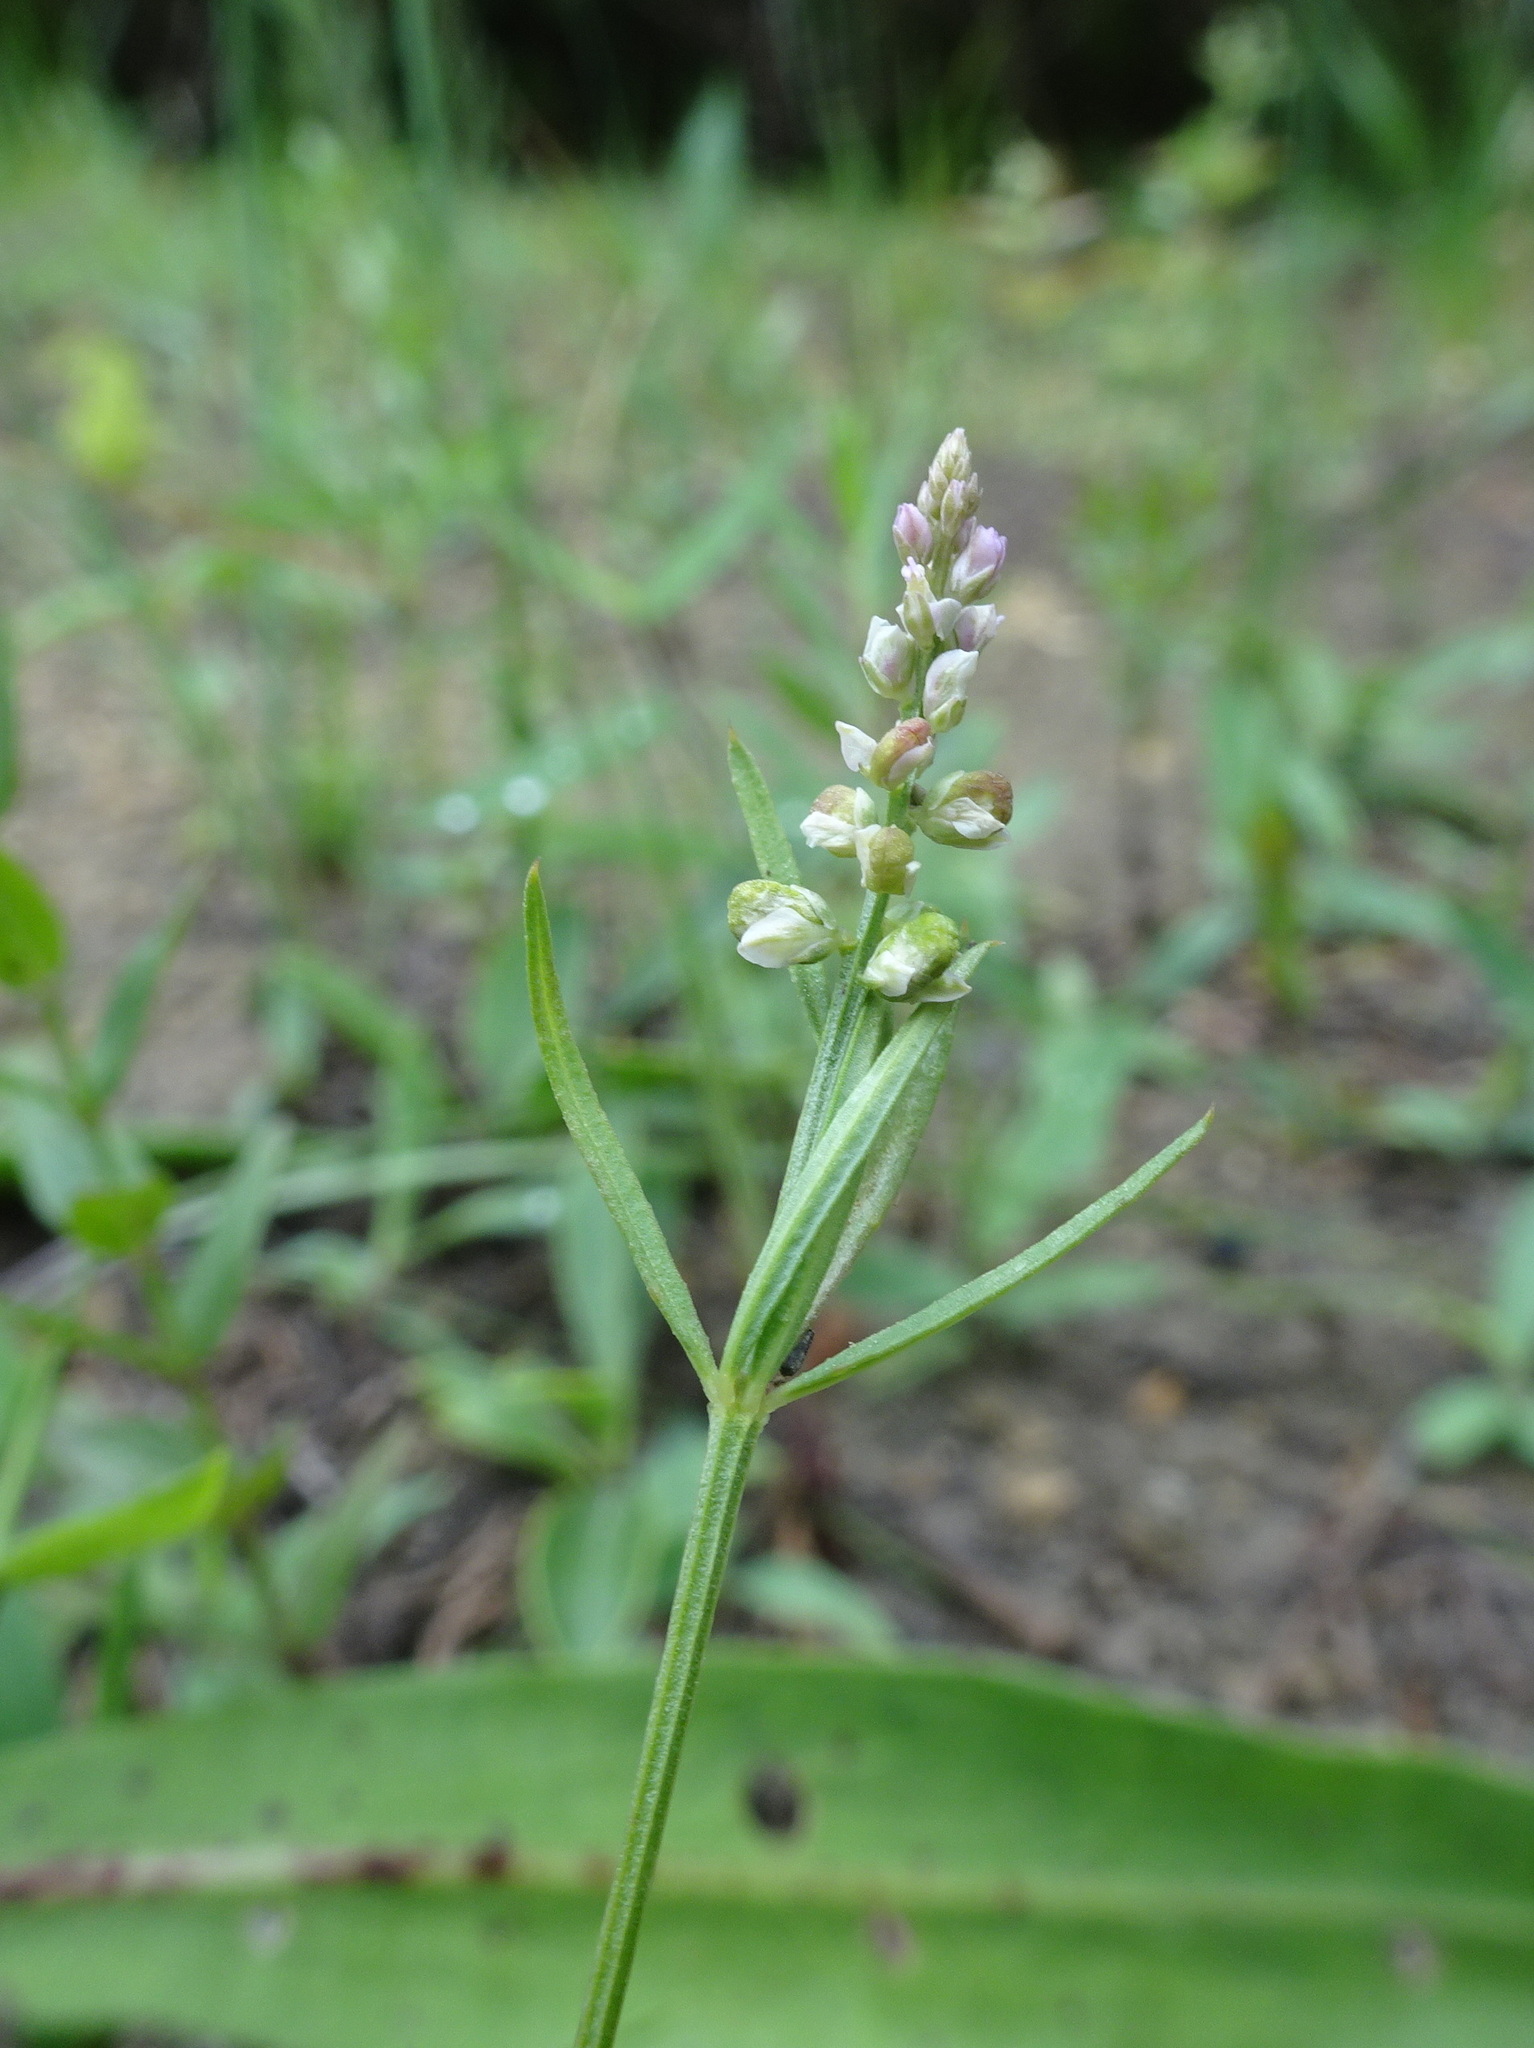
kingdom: Plantae
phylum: Tracheophyta
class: Magnoliopsida
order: Fabales
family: Polygalaceae
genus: Polygala
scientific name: Polygala verticillata
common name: Whorl milkwort
